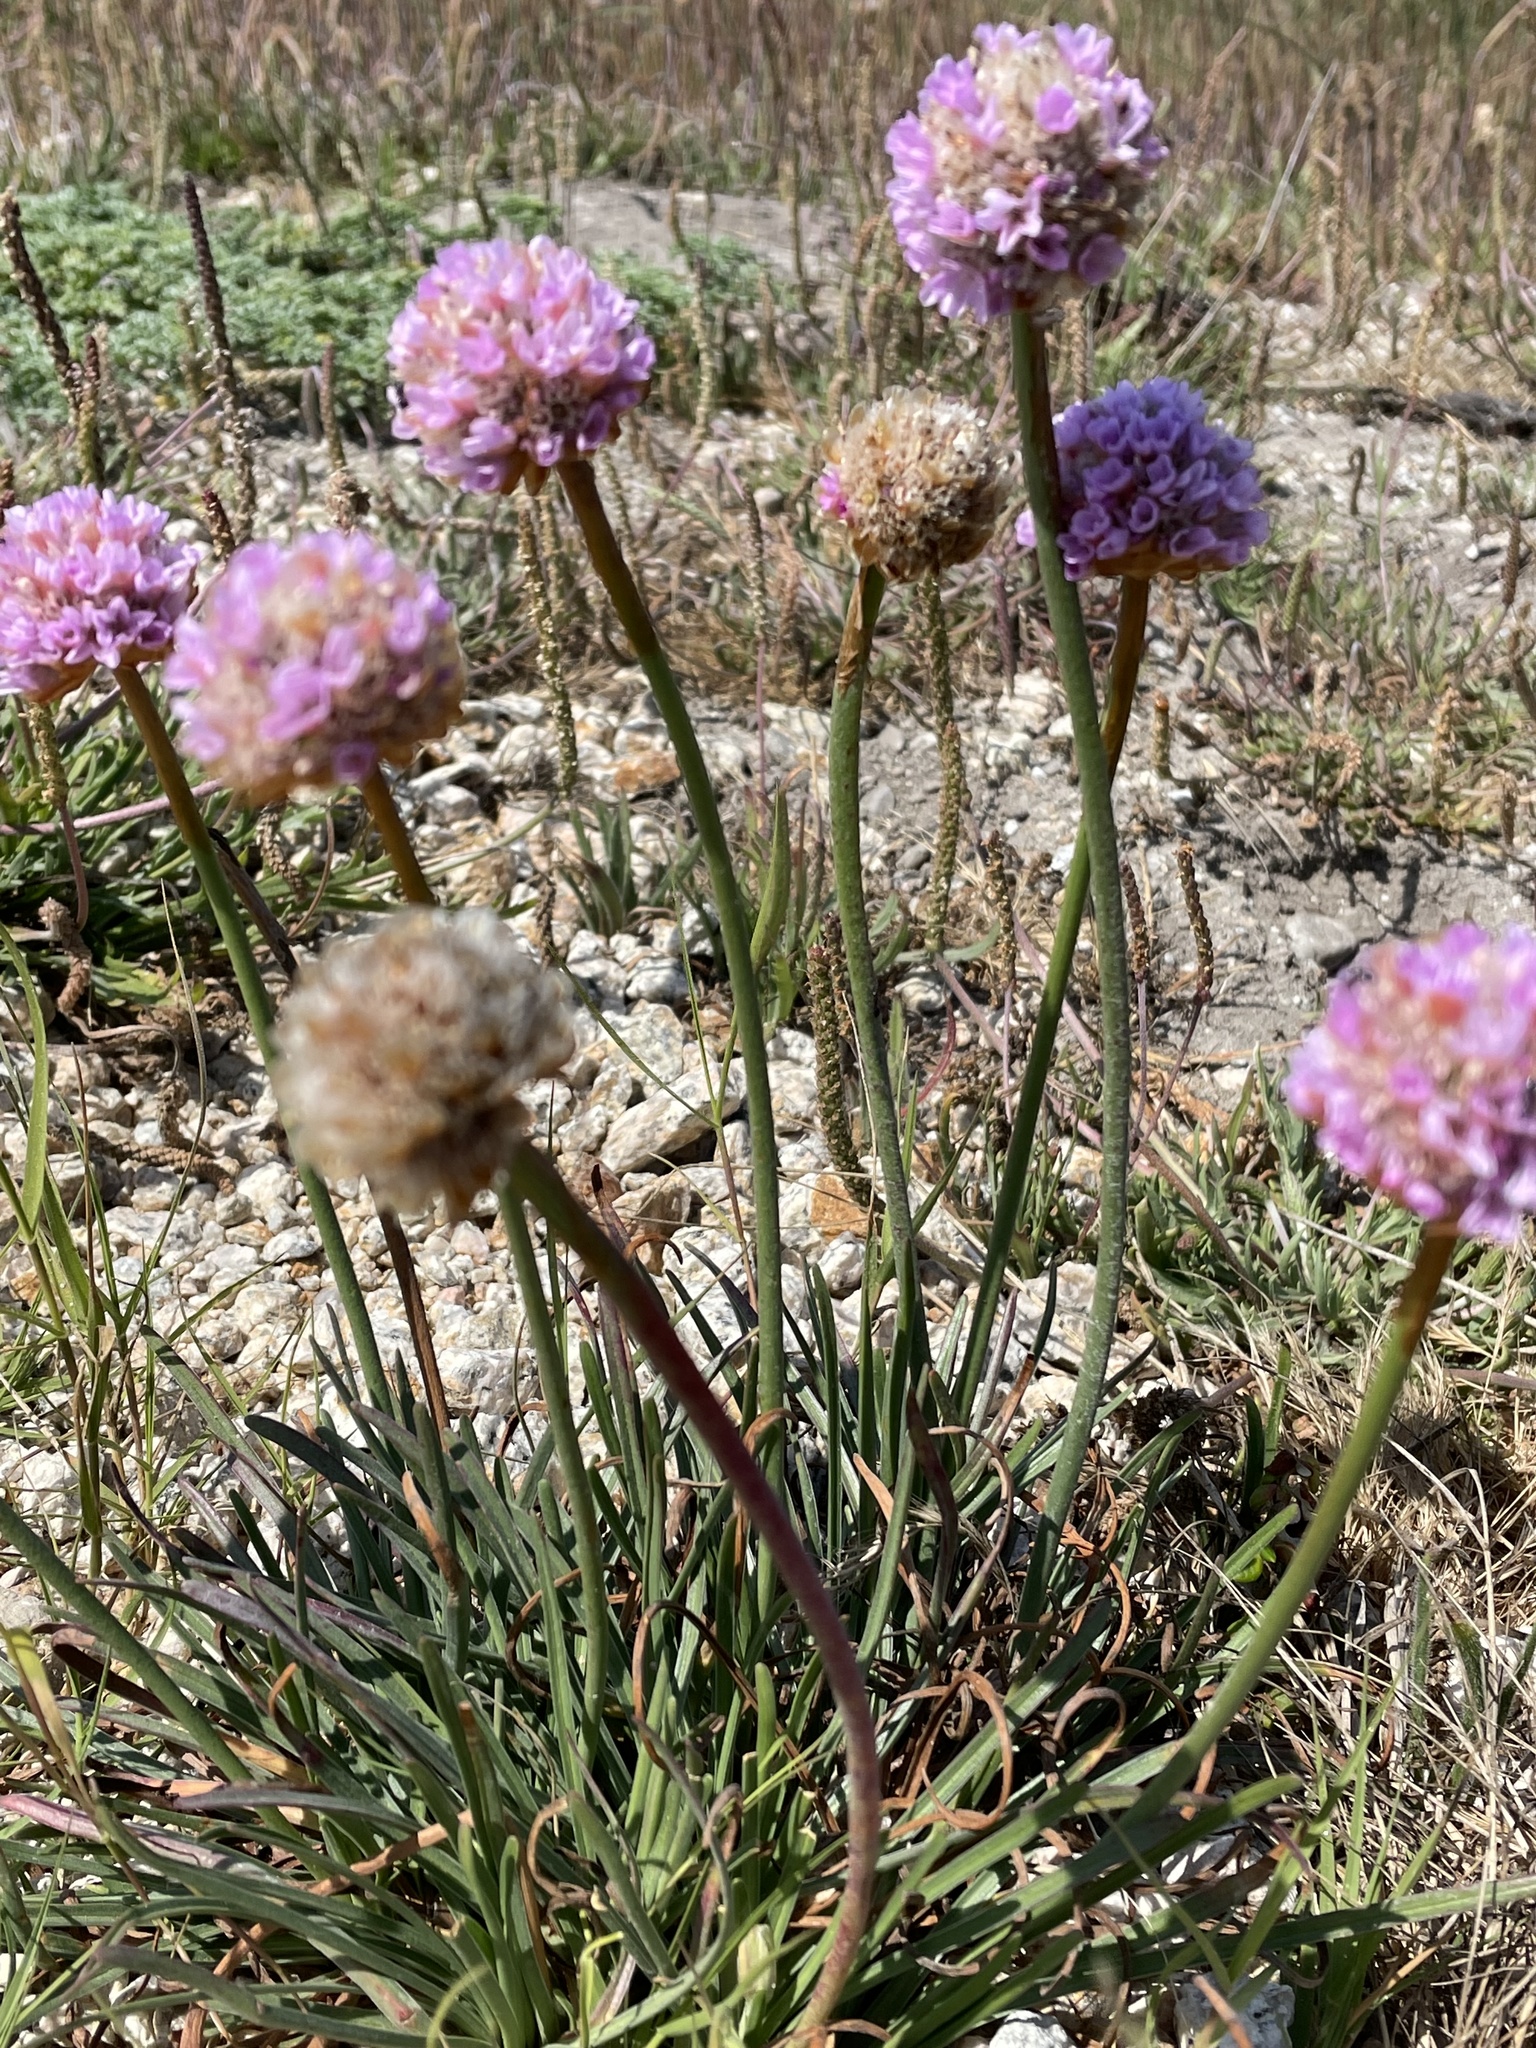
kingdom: Plantae
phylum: Tracheophyta
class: Magnoliopsida
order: Caryophyllales
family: Plumbaginaceae
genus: Armeria
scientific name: Armeria maritima
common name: Thrift
